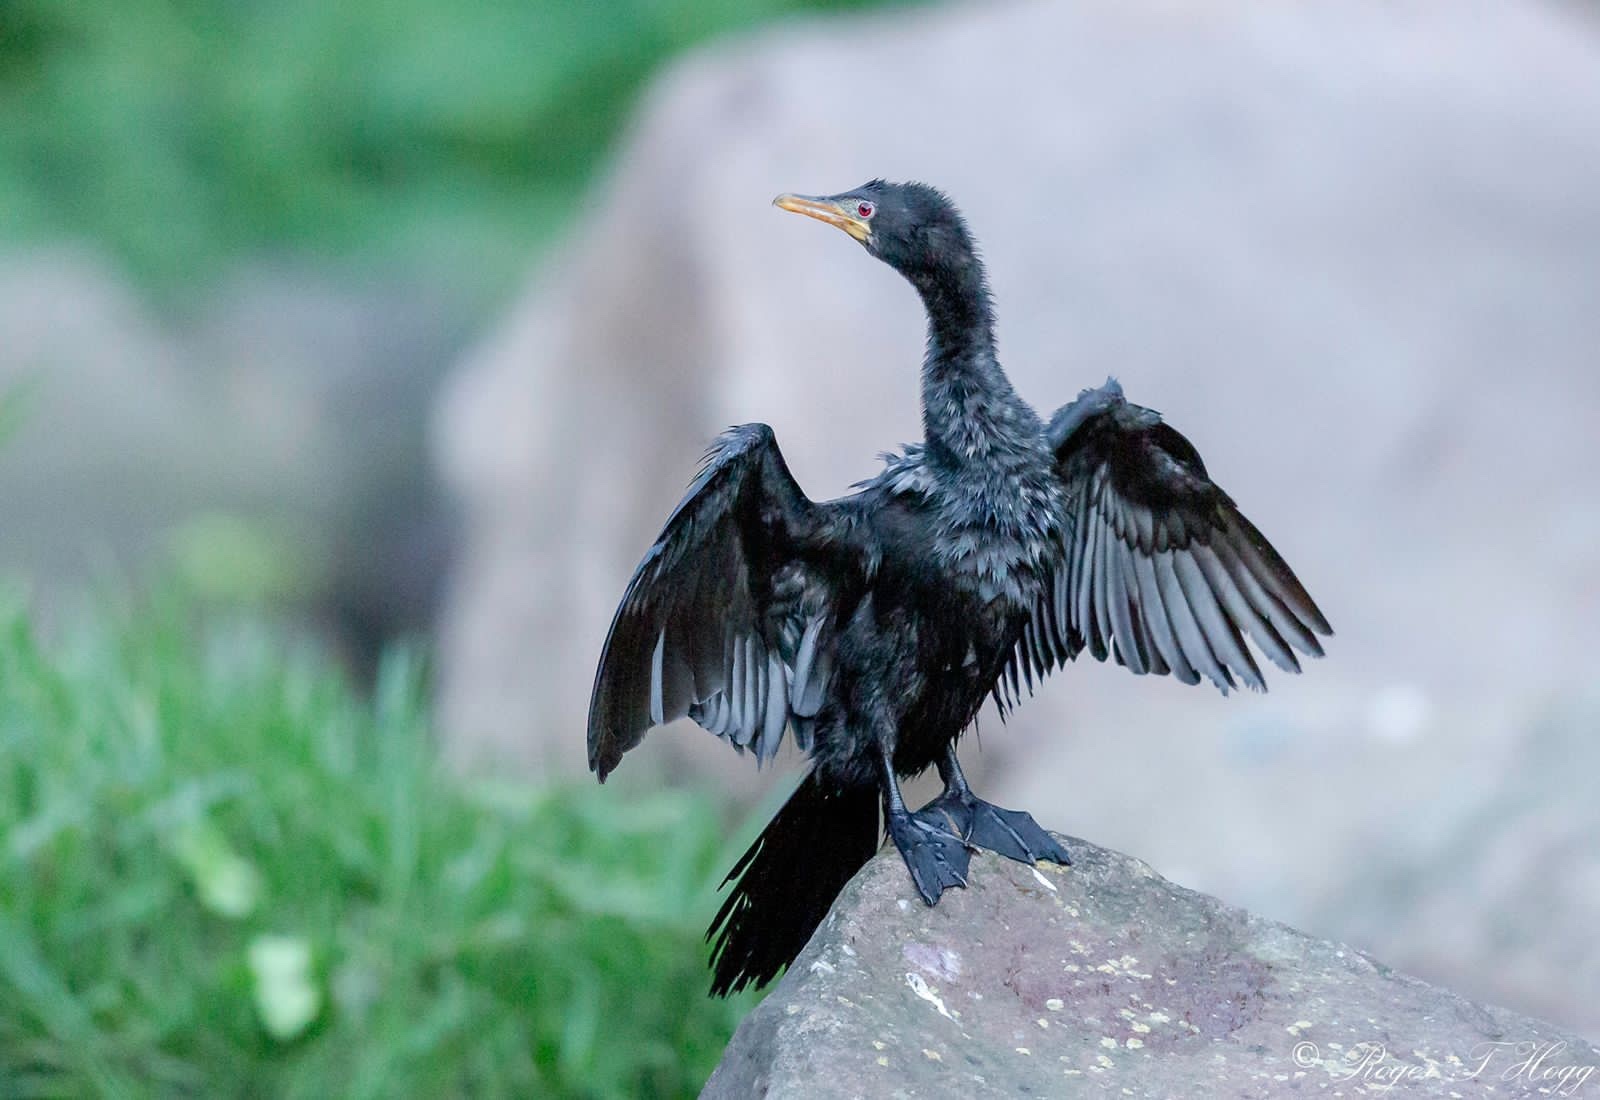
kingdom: Animalia
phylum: Chordata
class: Aves
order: Suliformes
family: Phalacrocoracidae
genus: Microcarbo
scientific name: Microcarbo africanus
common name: Long-tailed cormorant
